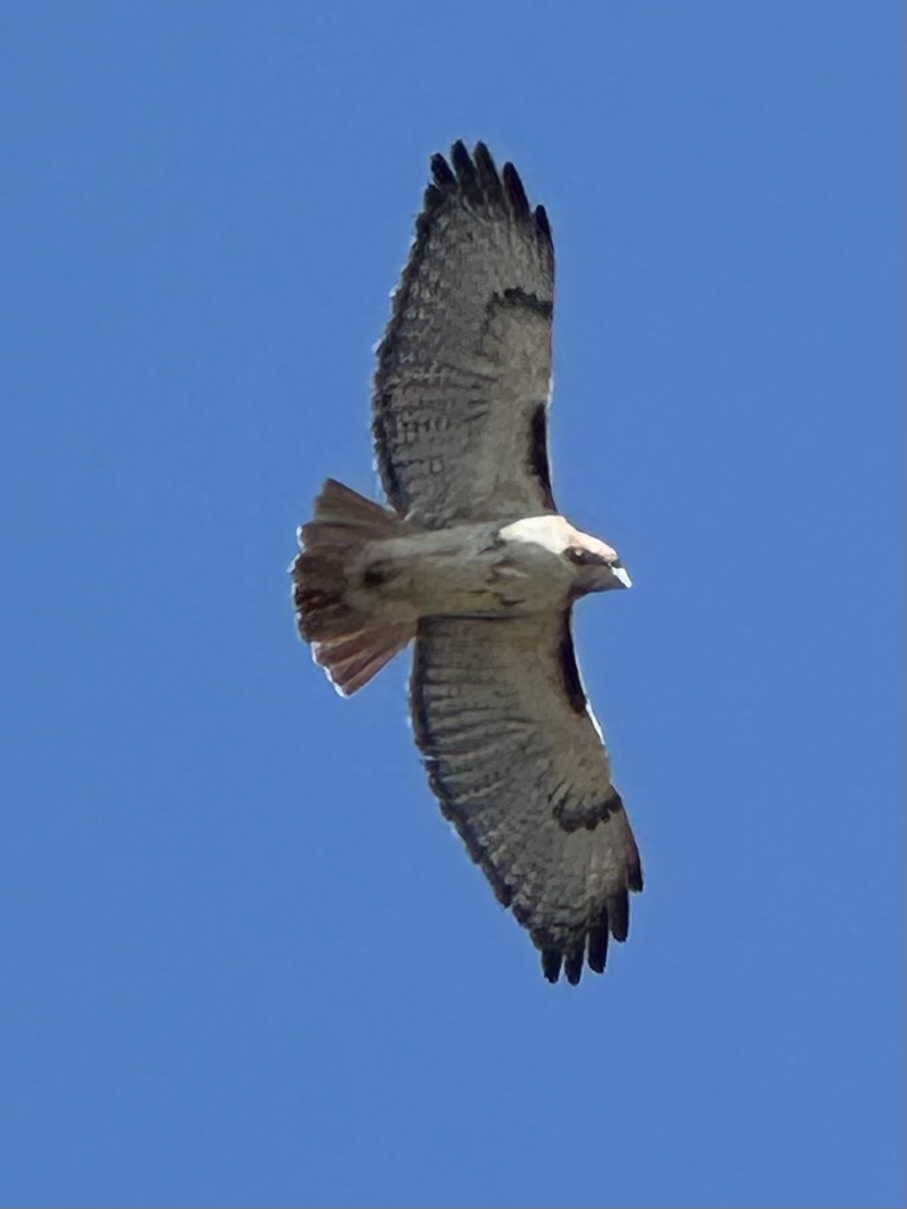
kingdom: Animalia
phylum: Chordata
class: Aves
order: Accipitriformes
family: Accipitridae
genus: Buteo
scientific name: Buteo jamaicensis
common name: Red-tailed hawk
